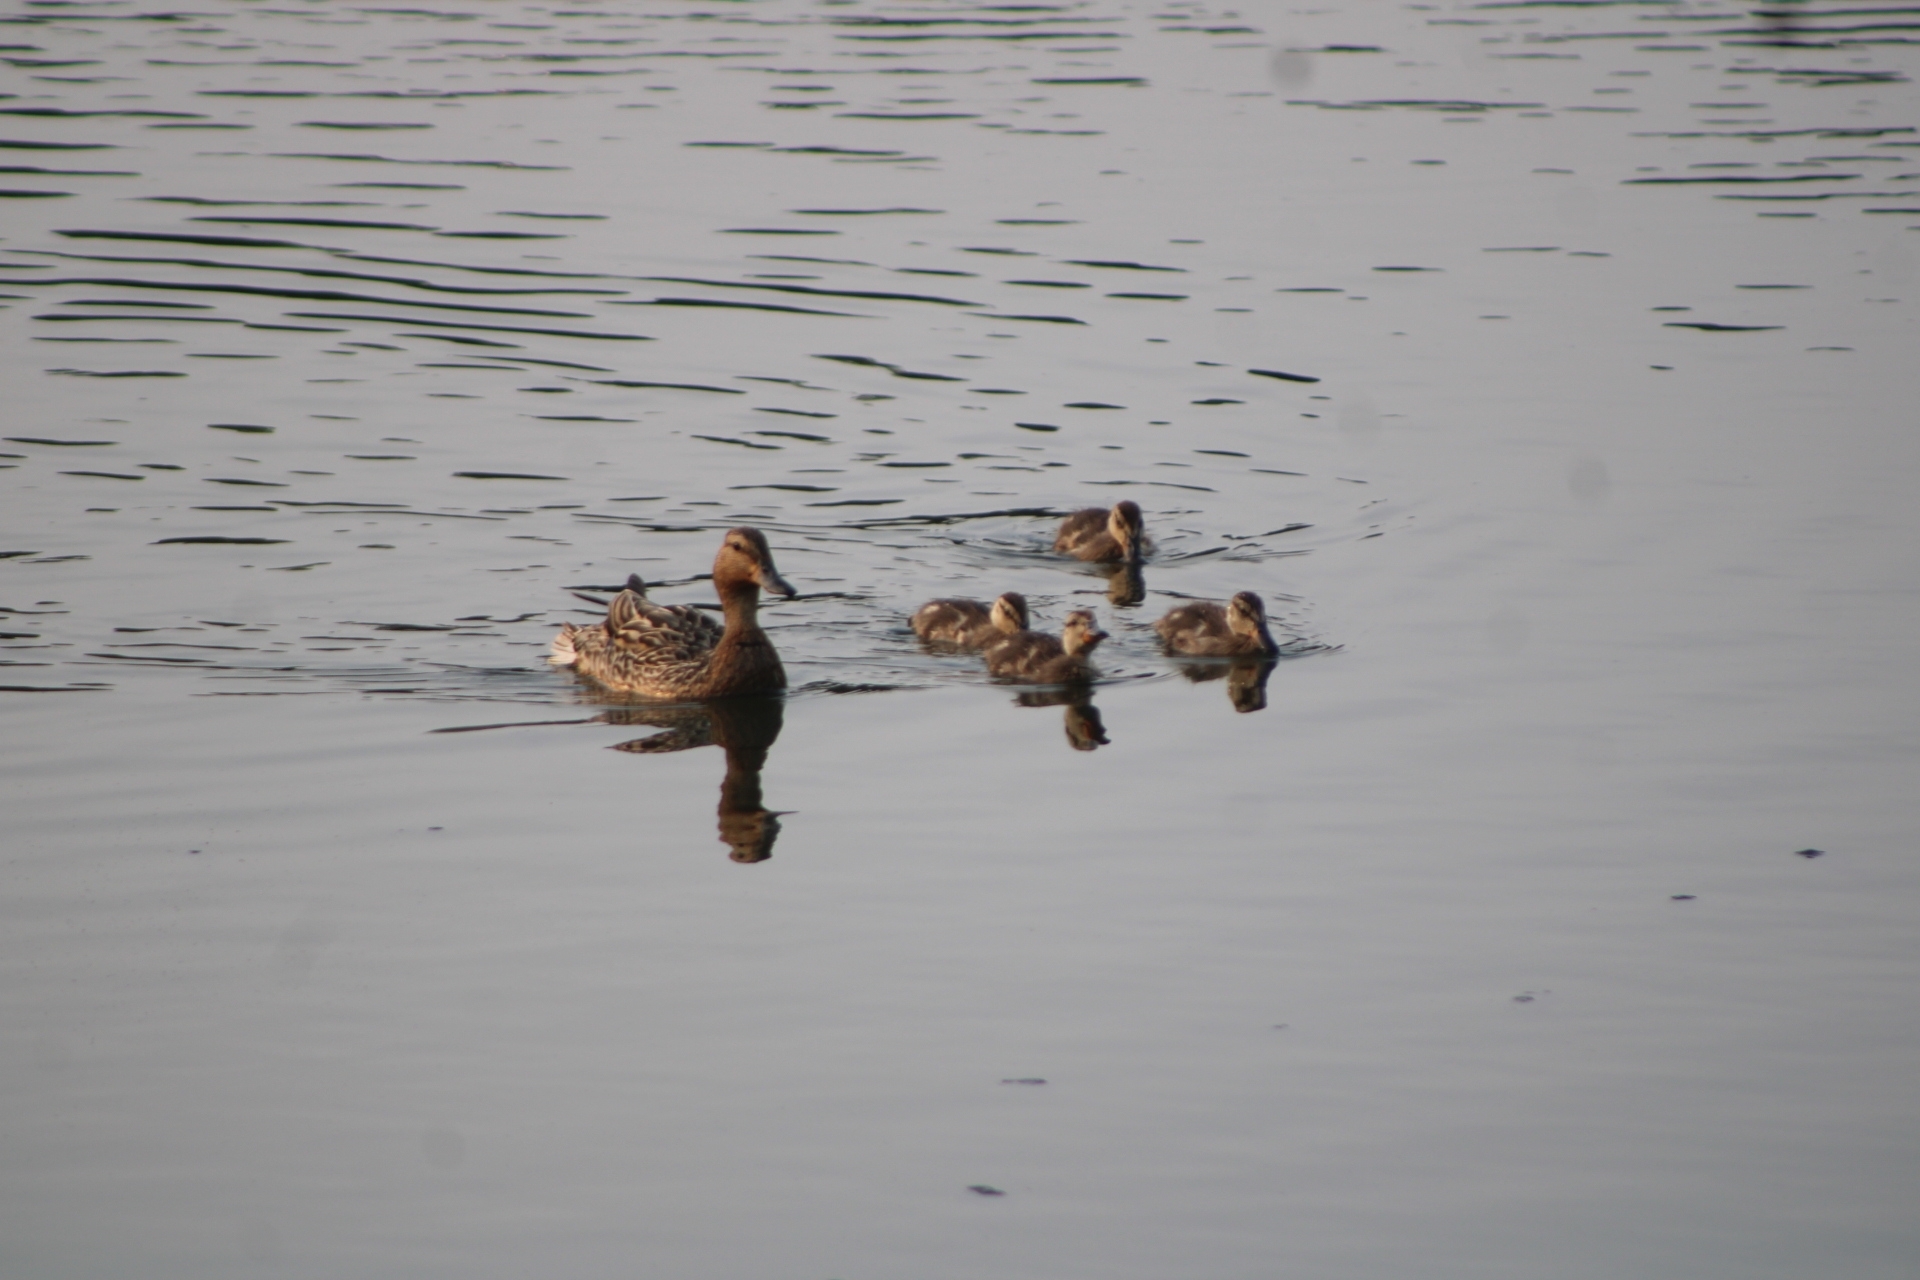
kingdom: Animalia
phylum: Chordata
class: Aves
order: Anseriformes
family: Anatidae
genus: Anas
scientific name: Anas platyrhynchos
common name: Mallard
